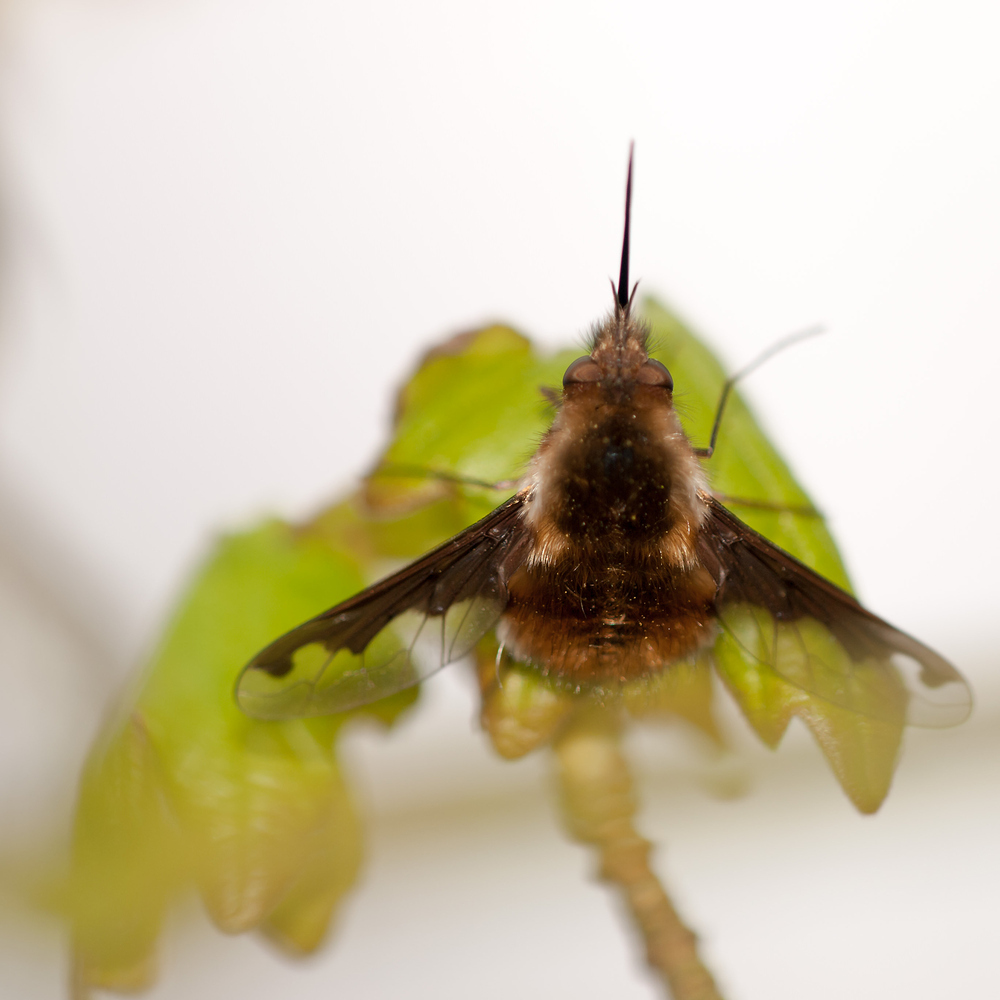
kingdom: Animalia
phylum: Arthropoda
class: Insecta
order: Diptera
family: Bombyliidae
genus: Bombylius
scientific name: Bombylius major
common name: Bee fly
